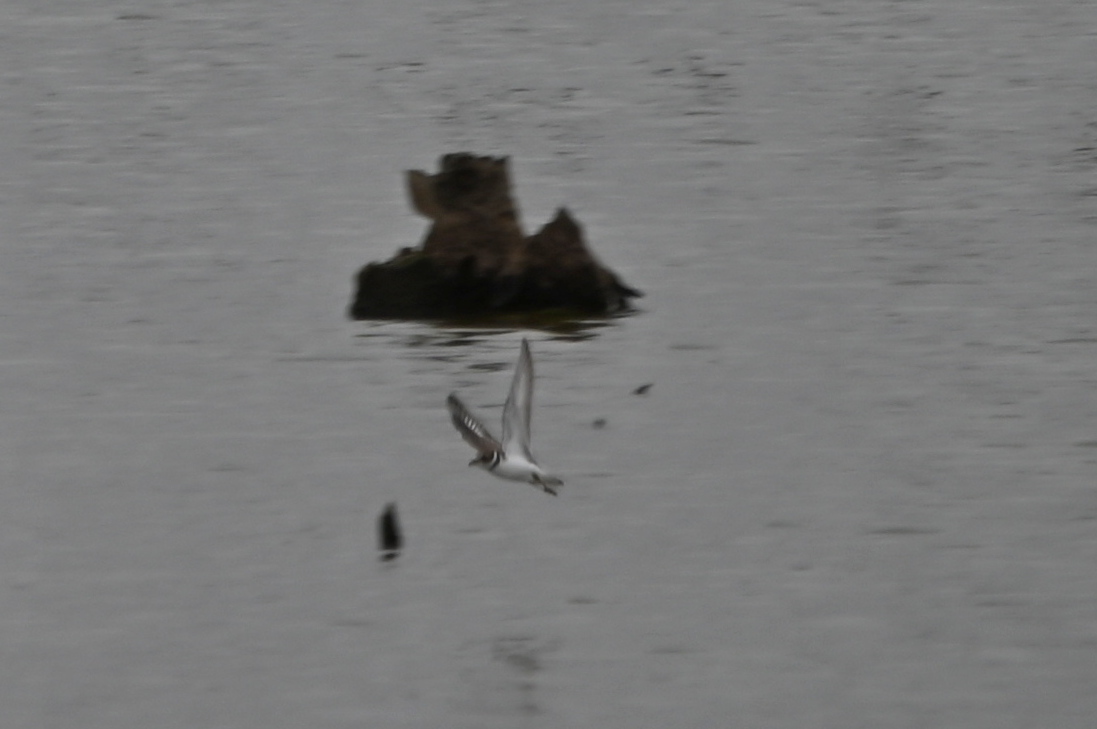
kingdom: Animalia
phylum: Chordata
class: Aves
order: Charadriiformes
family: Charadriidae
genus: Charadrius
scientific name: Charadrius semipalmatus
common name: Semipalmated plover
